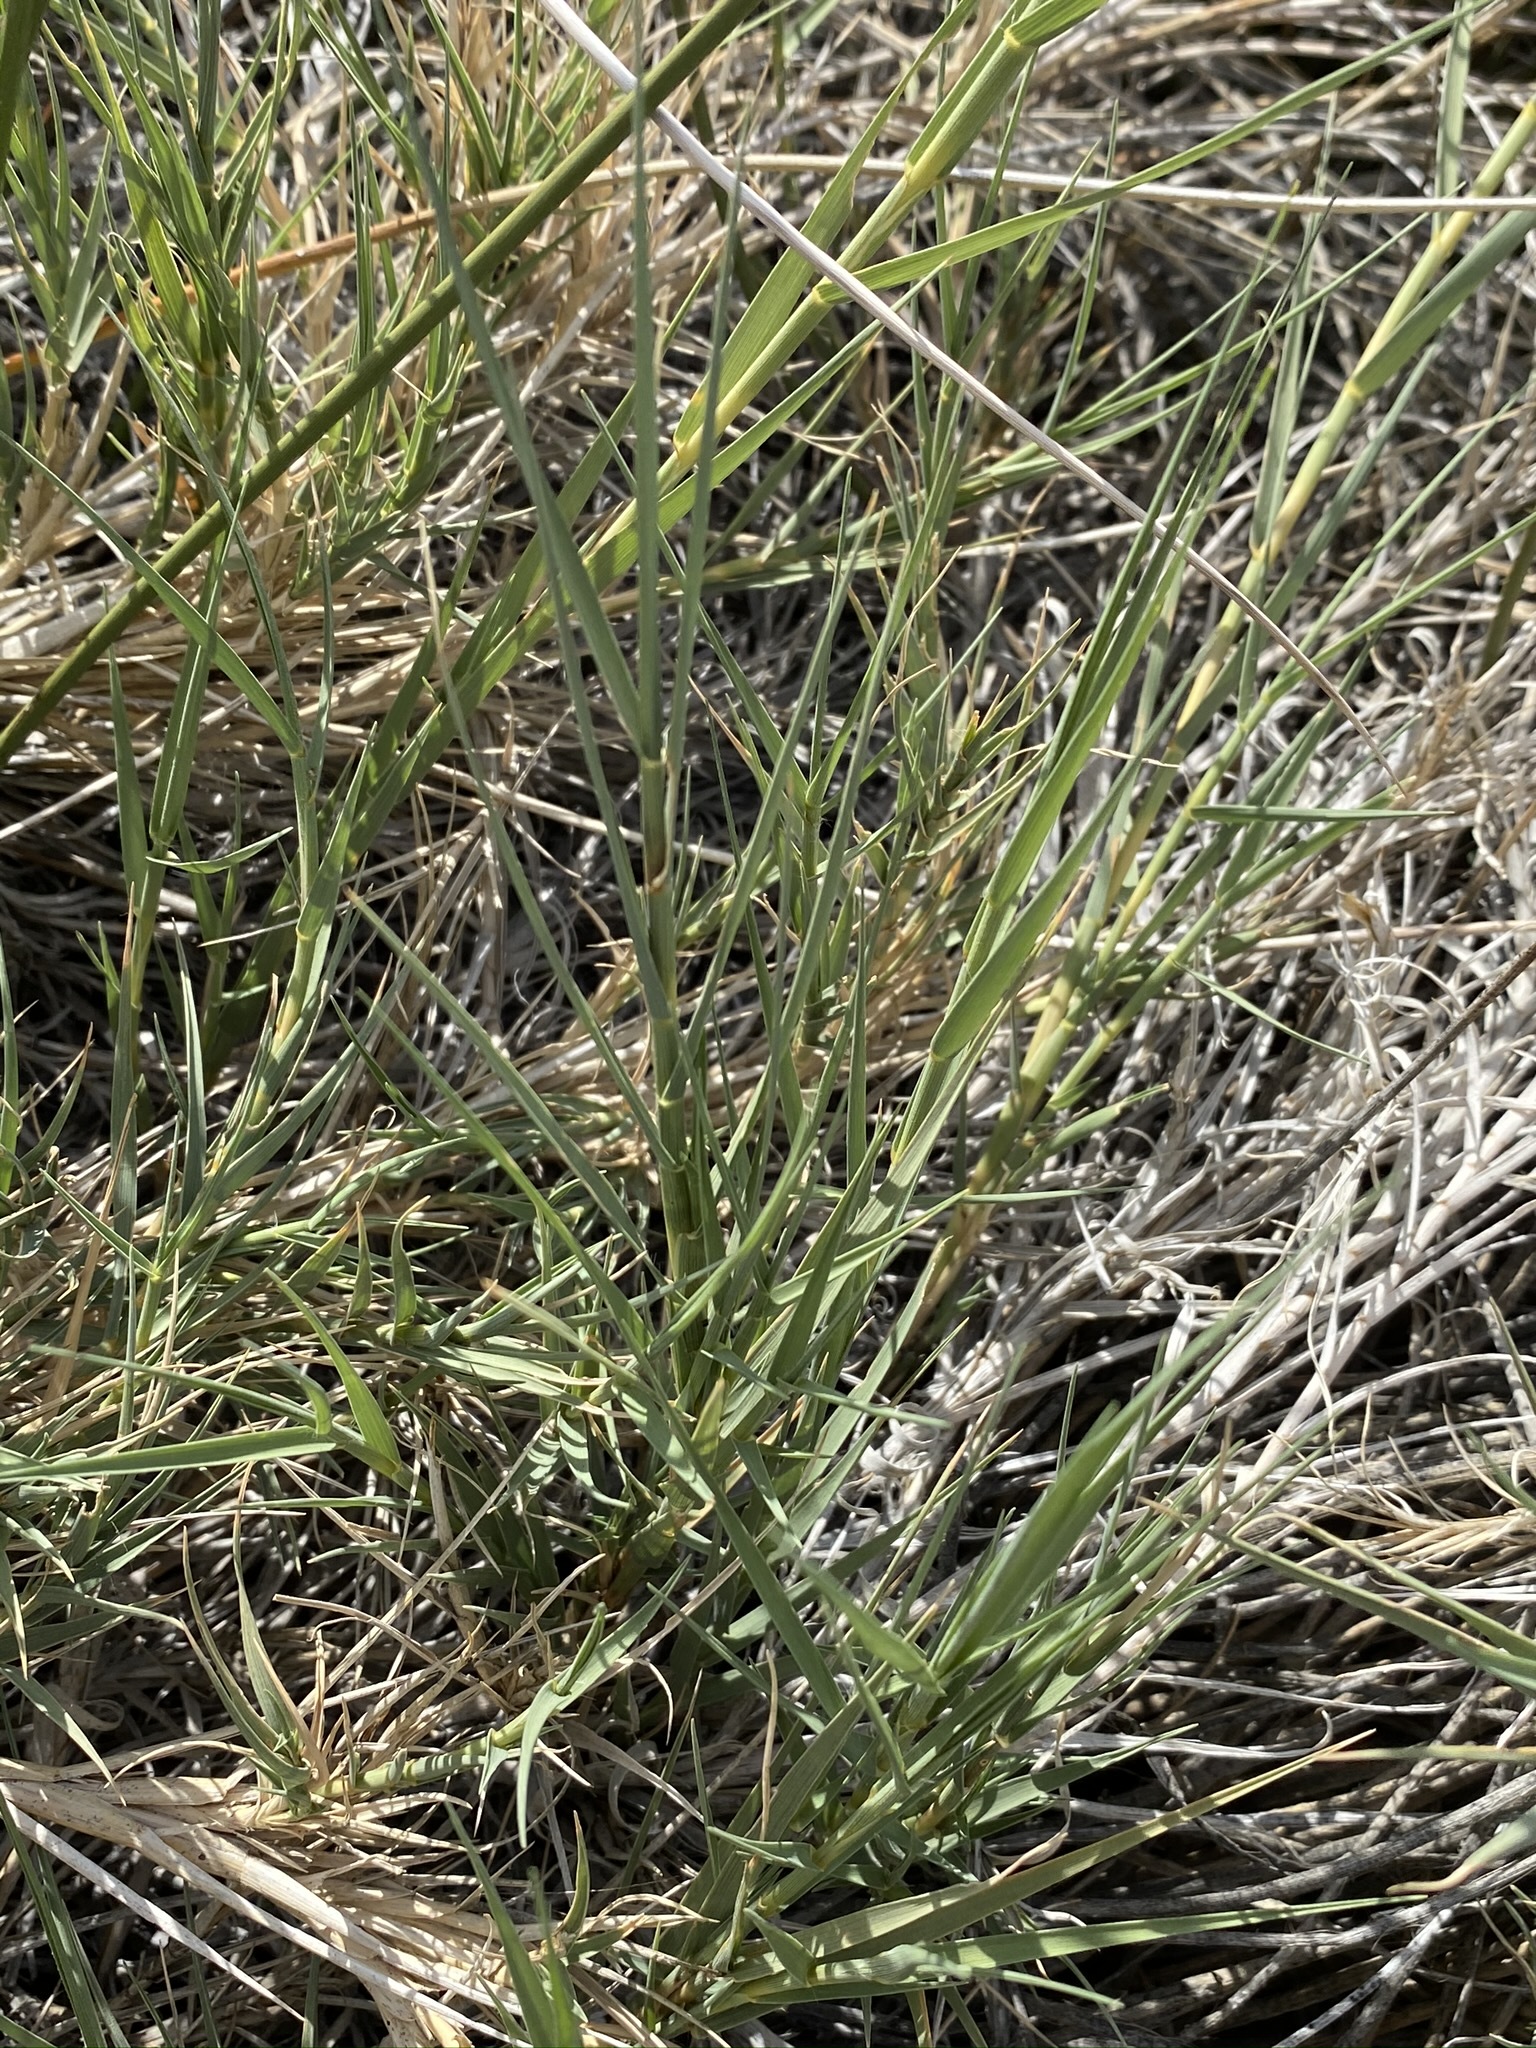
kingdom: Plantae
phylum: Tracheophyta
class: Liliopsida
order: Poales
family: Poaceae
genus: Distichlis
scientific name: Distichlis spicata
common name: Saltgrass
